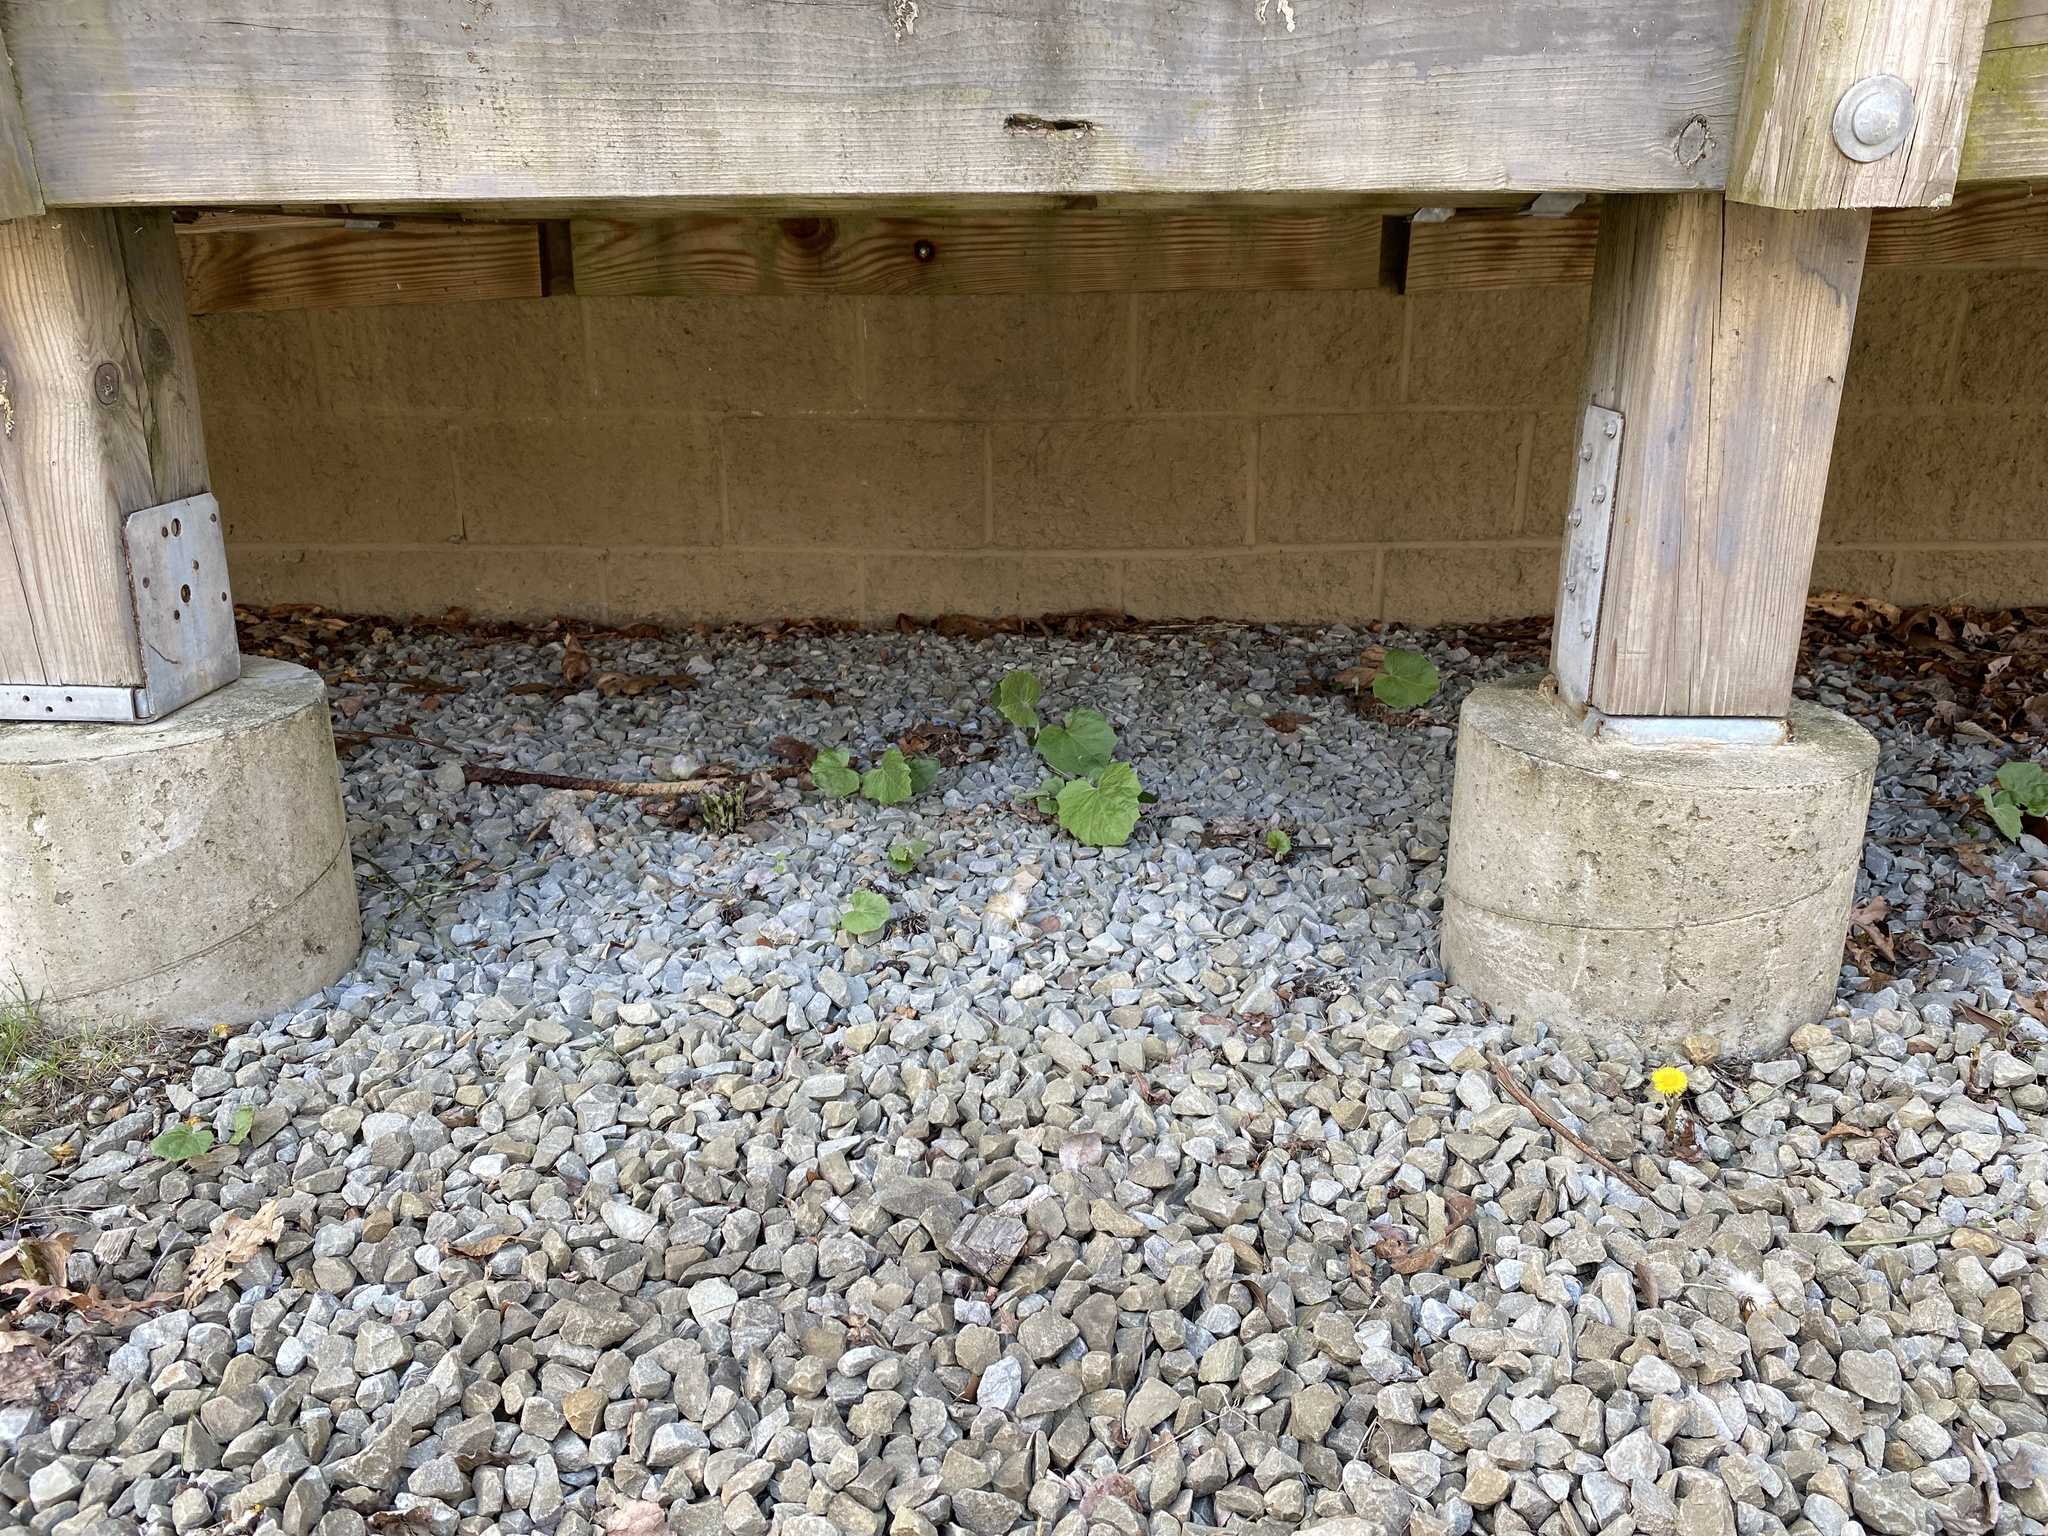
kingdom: Plantae
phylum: Tracheophyta
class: Magnoliopsida
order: Asterales
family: Asteraceae
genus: Tussilago
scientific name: Tussilago farfara
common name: Coltsfoot
